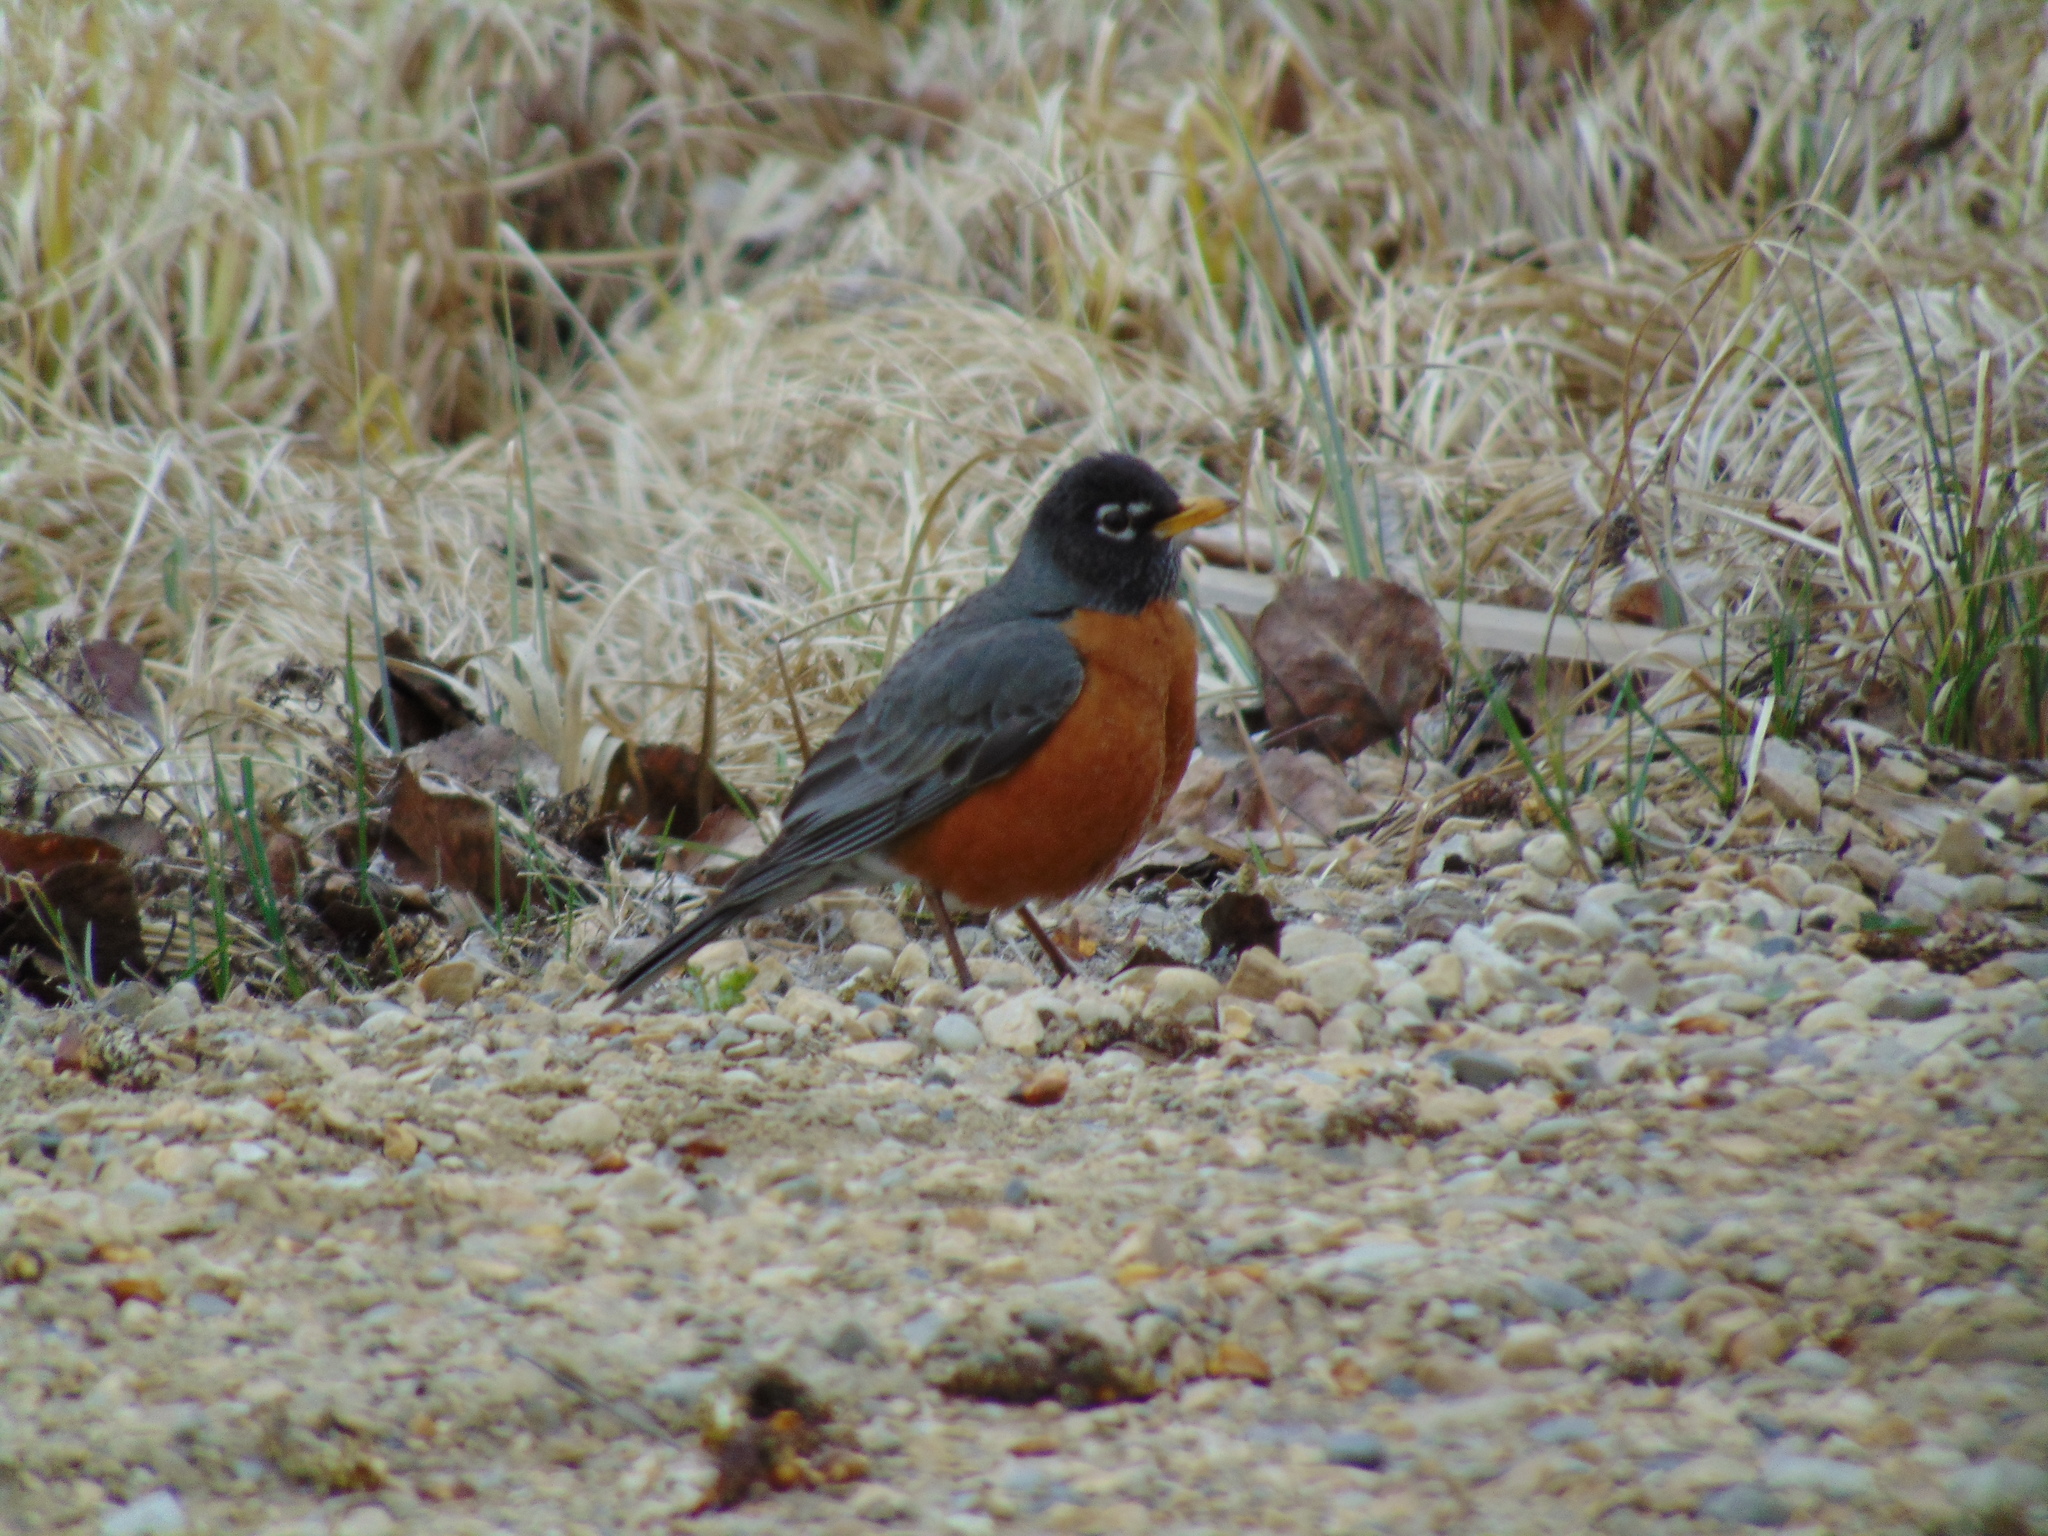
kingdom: Animalia
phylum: Chordata
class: Aves
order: Passeriformes
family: Turdidae
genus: Turdus
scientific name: Turdus migratorius
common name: American robin
